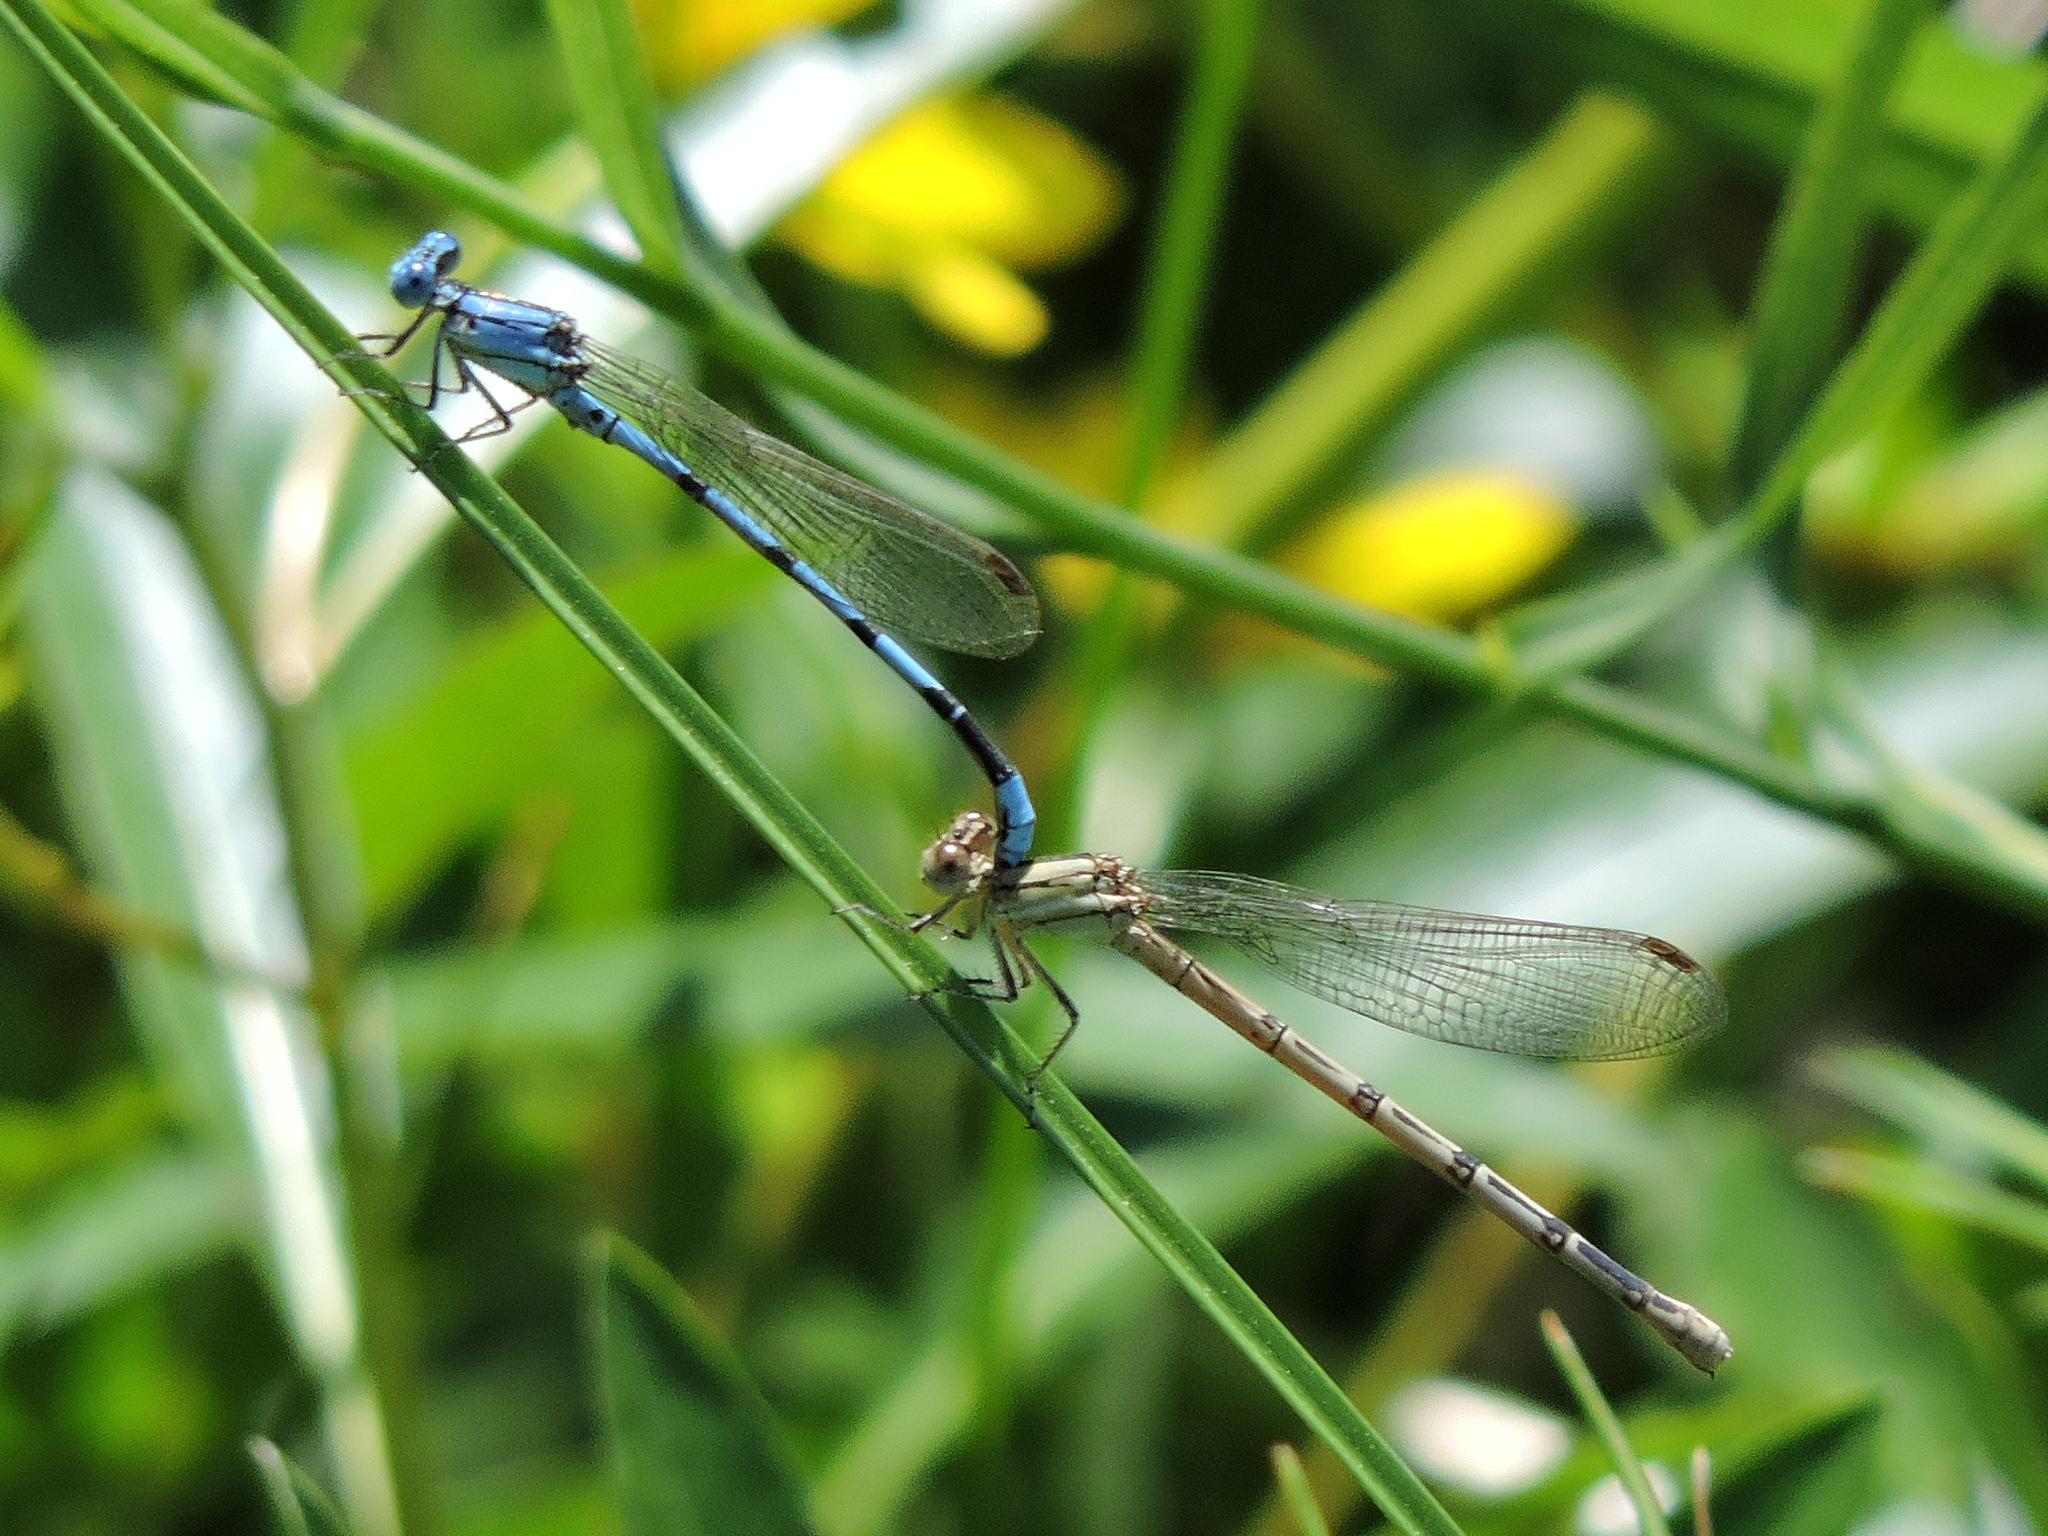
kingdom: Animalia
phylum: Arthropoda
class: Insecta
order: Odonata
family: Coenagrionidae
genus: Argia
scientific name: Argia nahuana
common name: Aztec dancer
